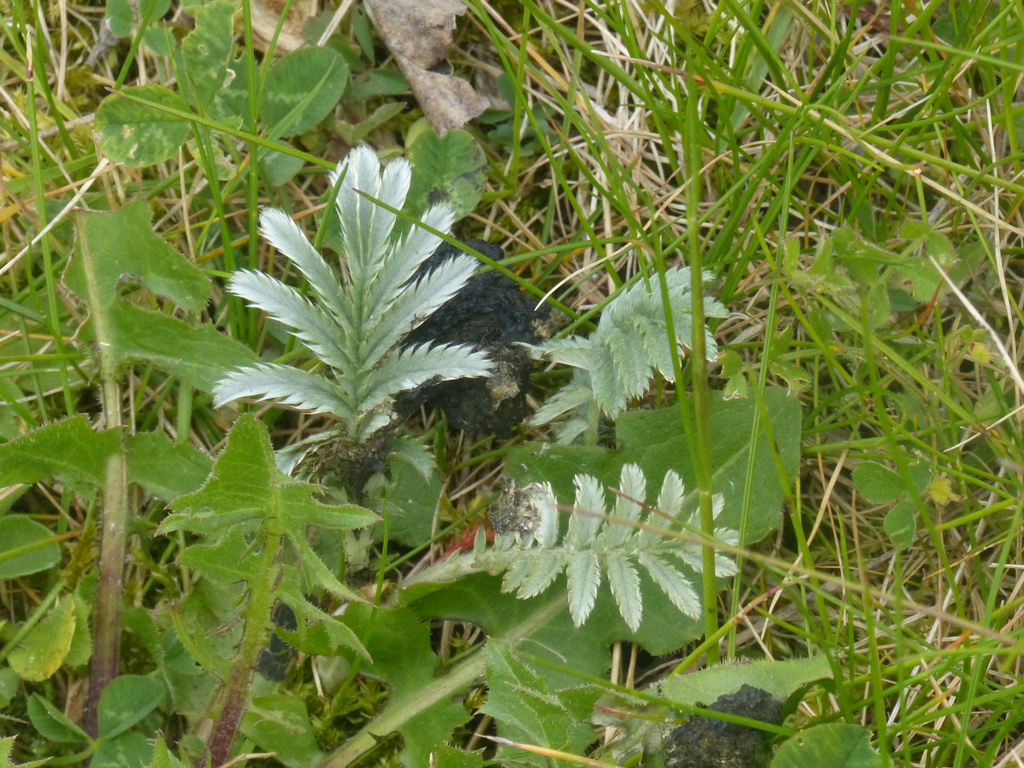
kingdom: Plantae
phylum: Tracheophyta
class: Magnoliopsida
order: Rosales
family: Rosaceae
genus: Argentina
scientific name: Argentina anserina
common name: Common silverweed
